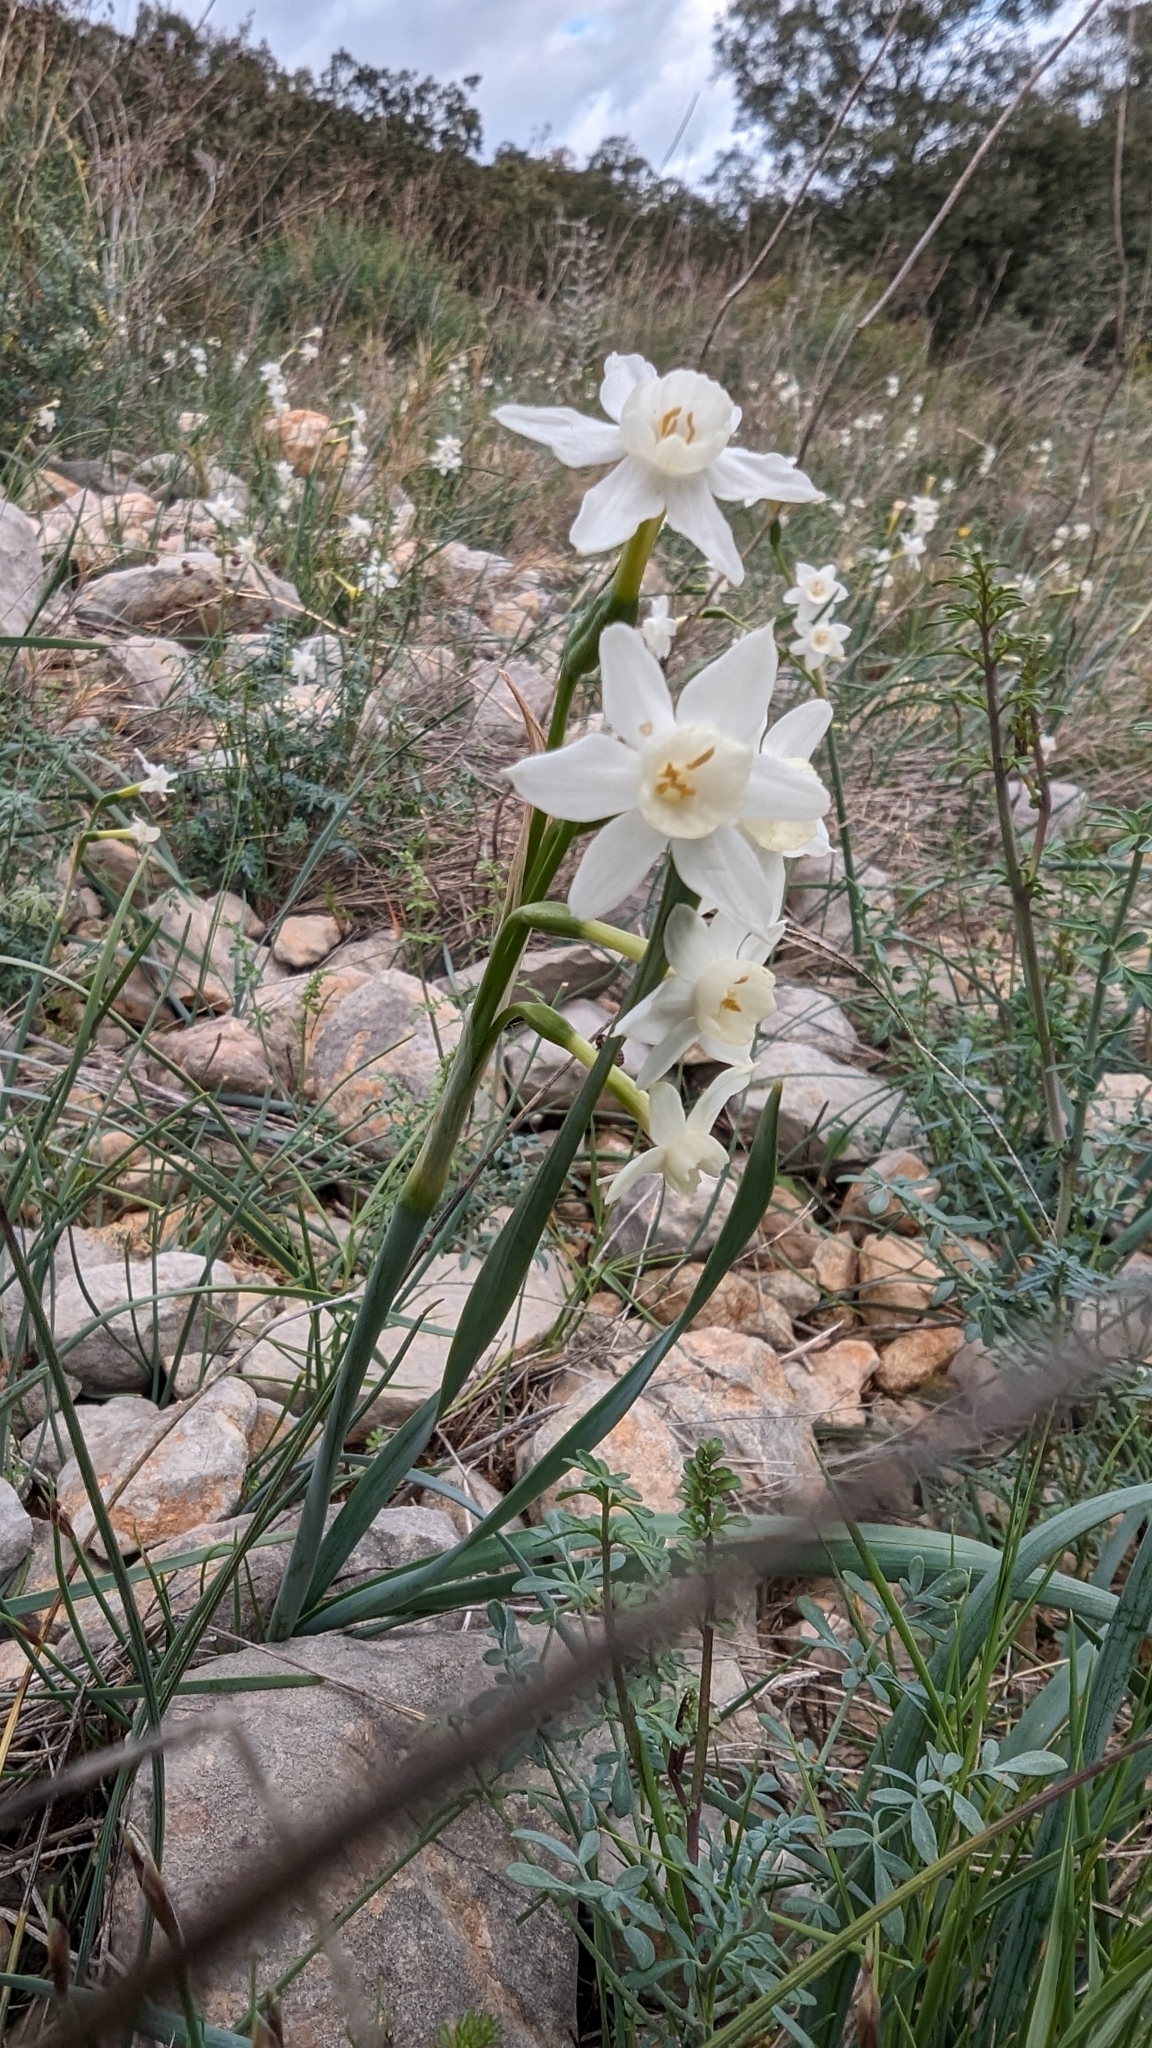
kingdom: Plantae
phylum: Tracheophyta
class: Liliopsida
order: Asparagales
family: Amaryllidaceae
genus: Narcissus
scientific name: Narcissus dubius
